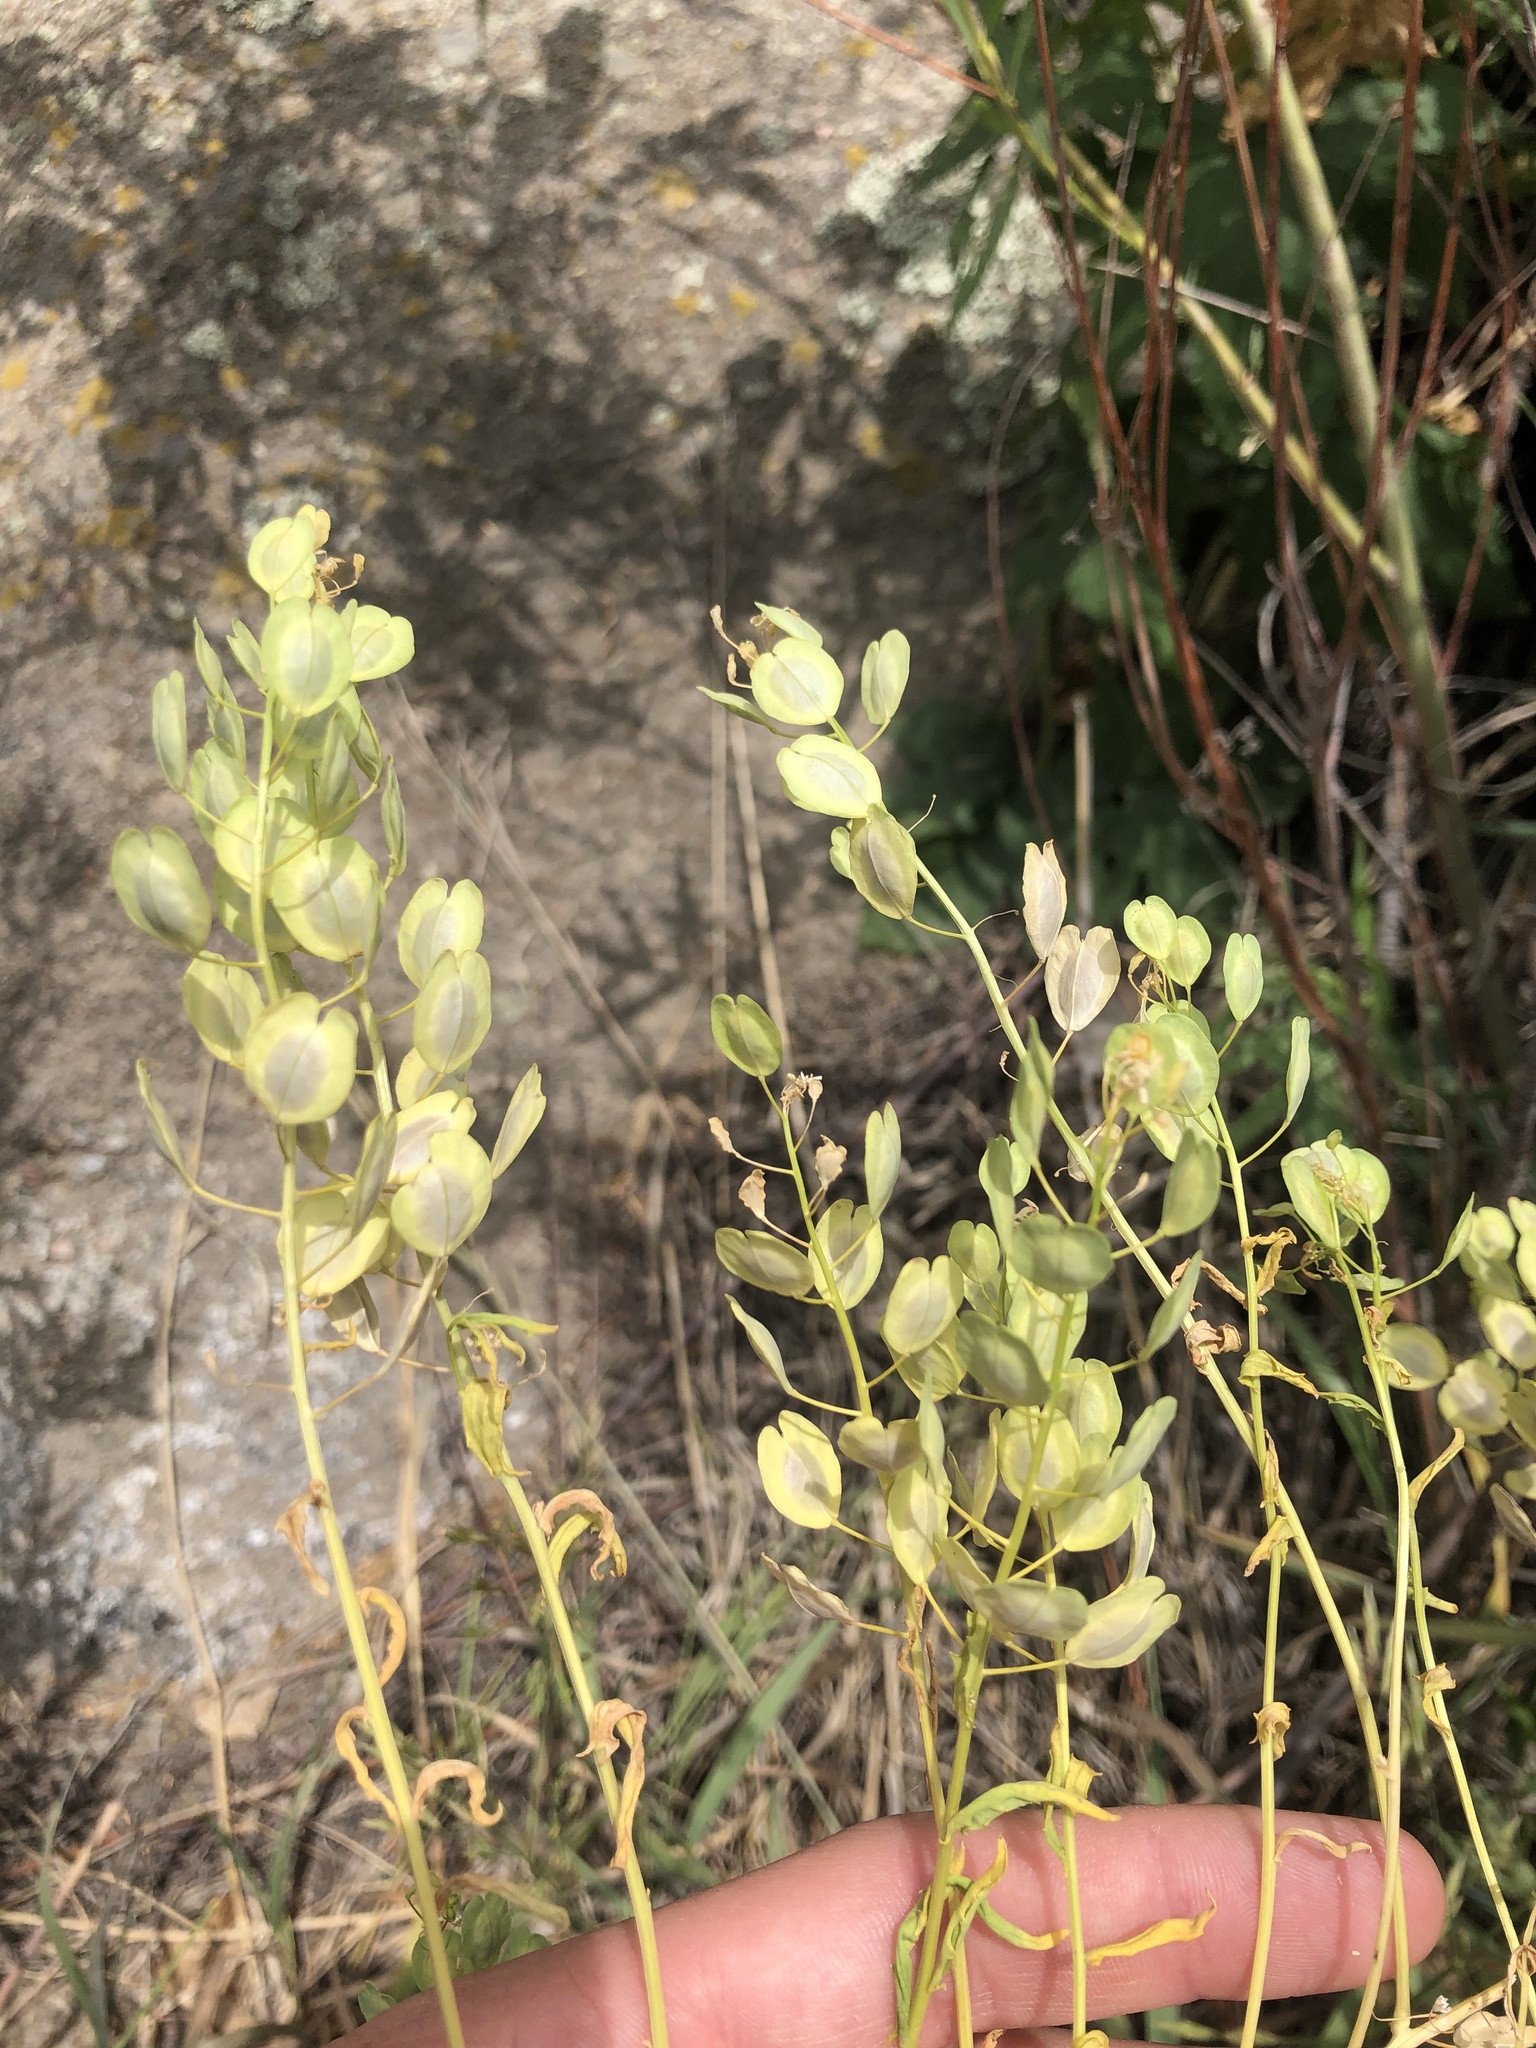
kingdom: Plantae
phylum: Tracheophyta
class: Magnoliopsida
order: Brassicales
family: Brassicaceae
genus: Thlaspi
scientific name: Thlaspi arvense
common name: Field pennycress
